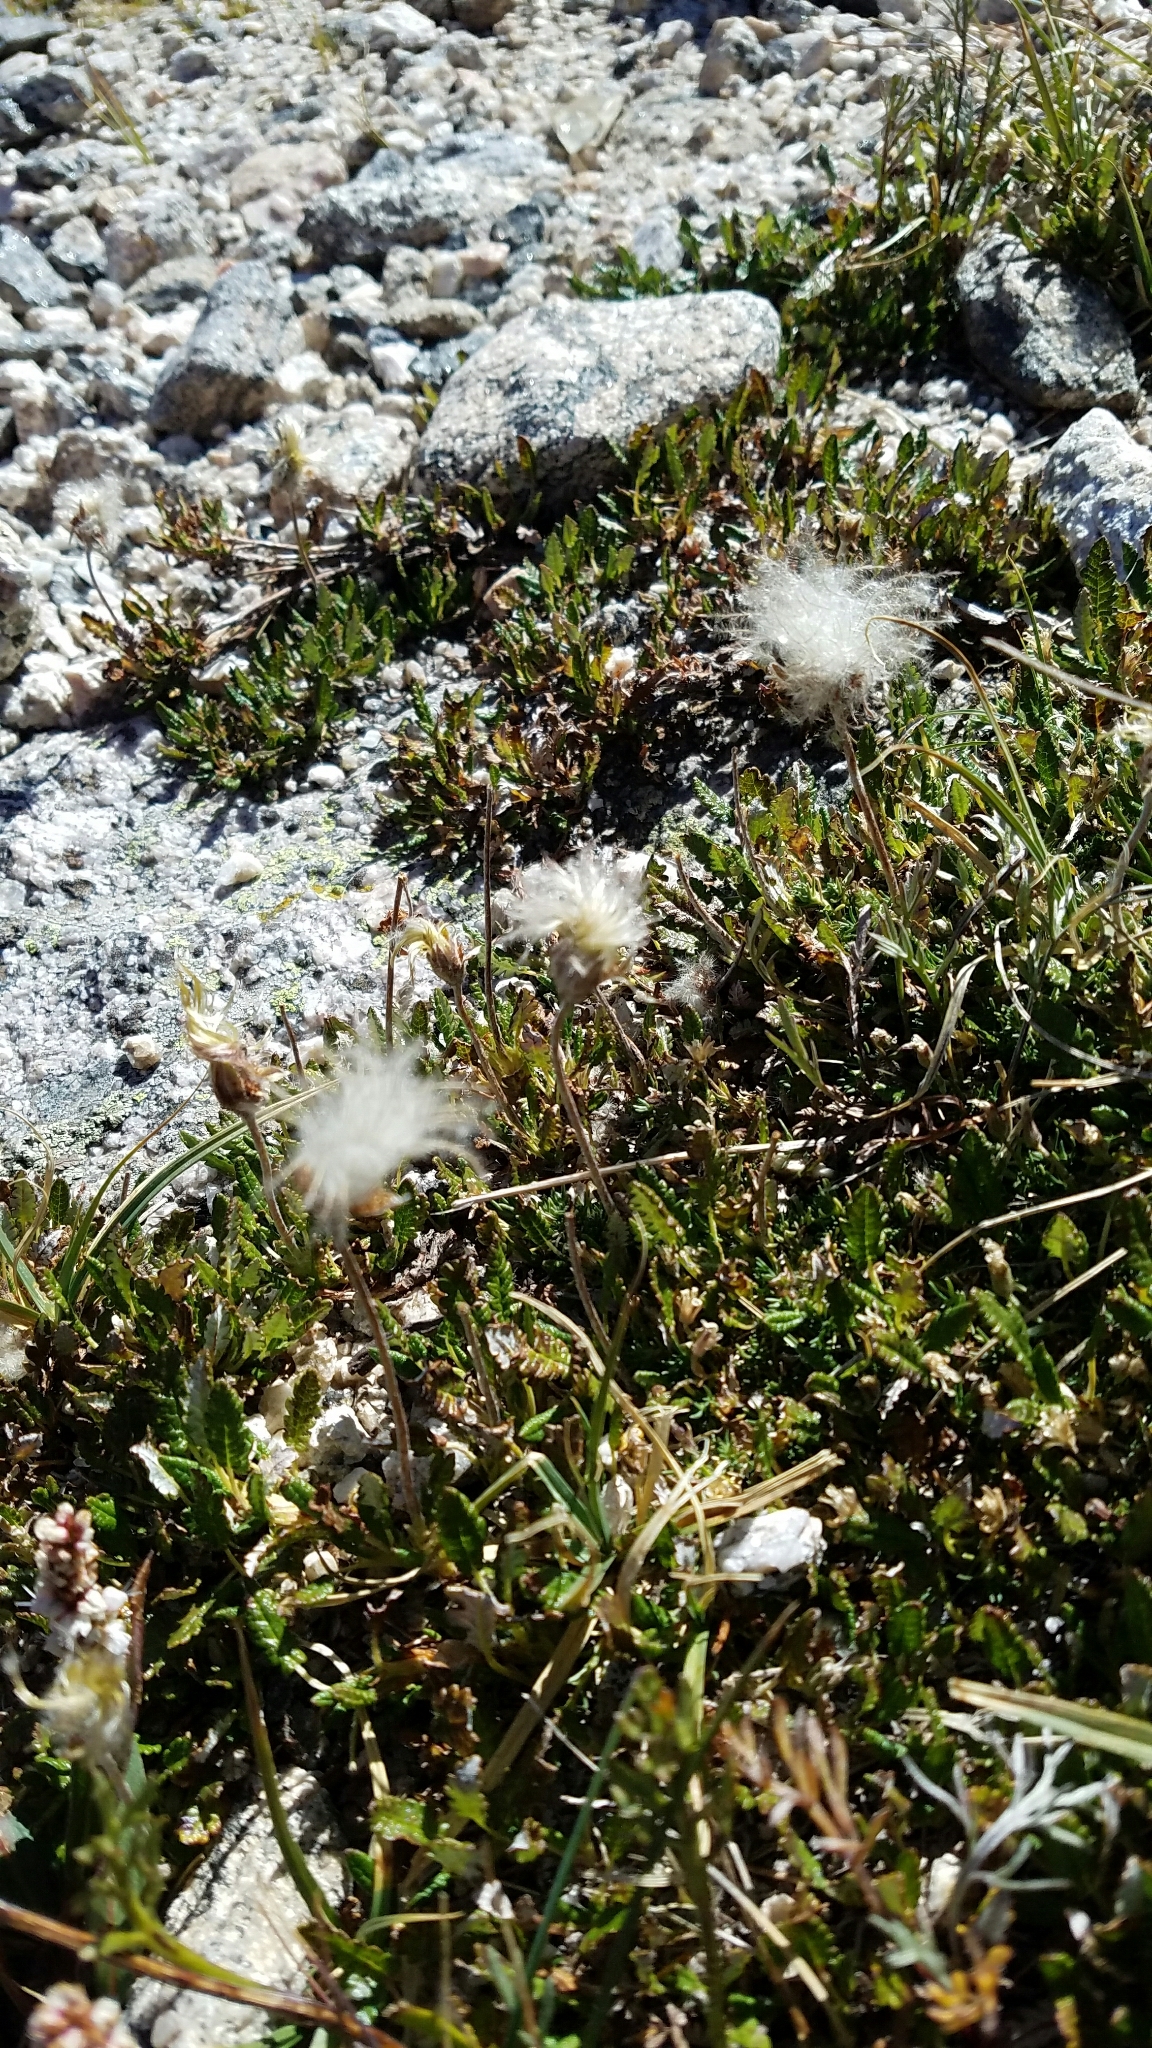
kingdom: Plantae
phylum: Tracheophyta
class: Magnoliopsida
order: Rosales
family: Rosaceae
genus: Dryas
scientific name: Dryas octopetala
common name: Eight-petal mountain-avens
